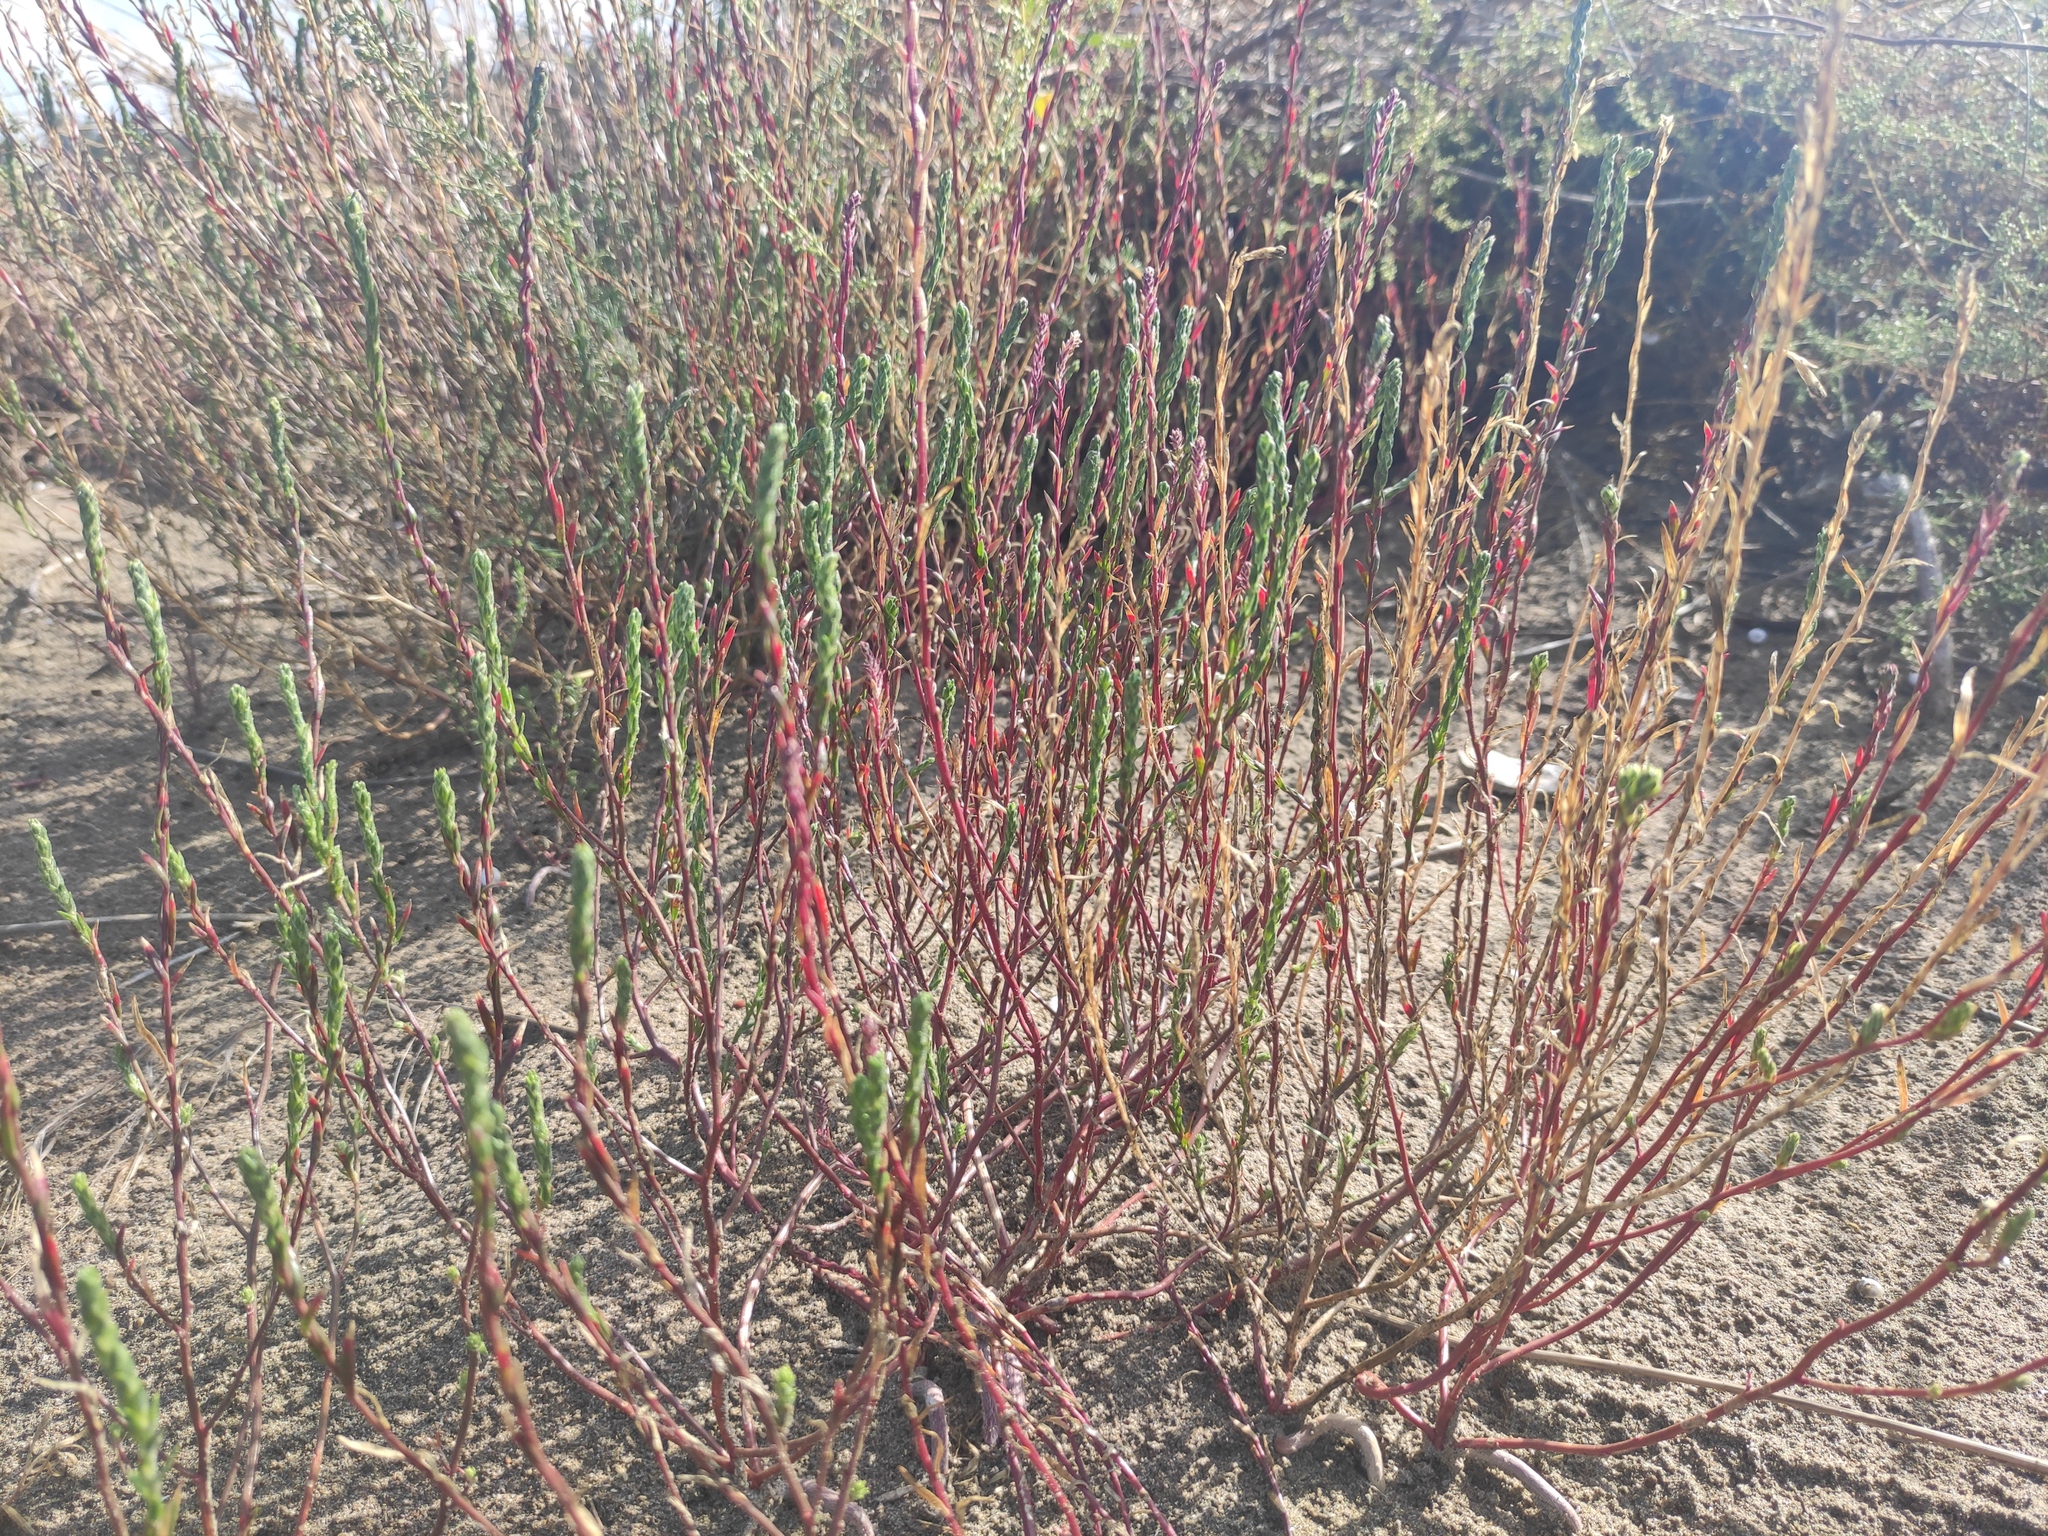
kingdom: Plantae
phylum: Tracheophyta
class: Magnoliopsida
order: Caryophyllales
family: Amaranthaceae
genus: Corispermum
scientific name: Corispermum gallicum
